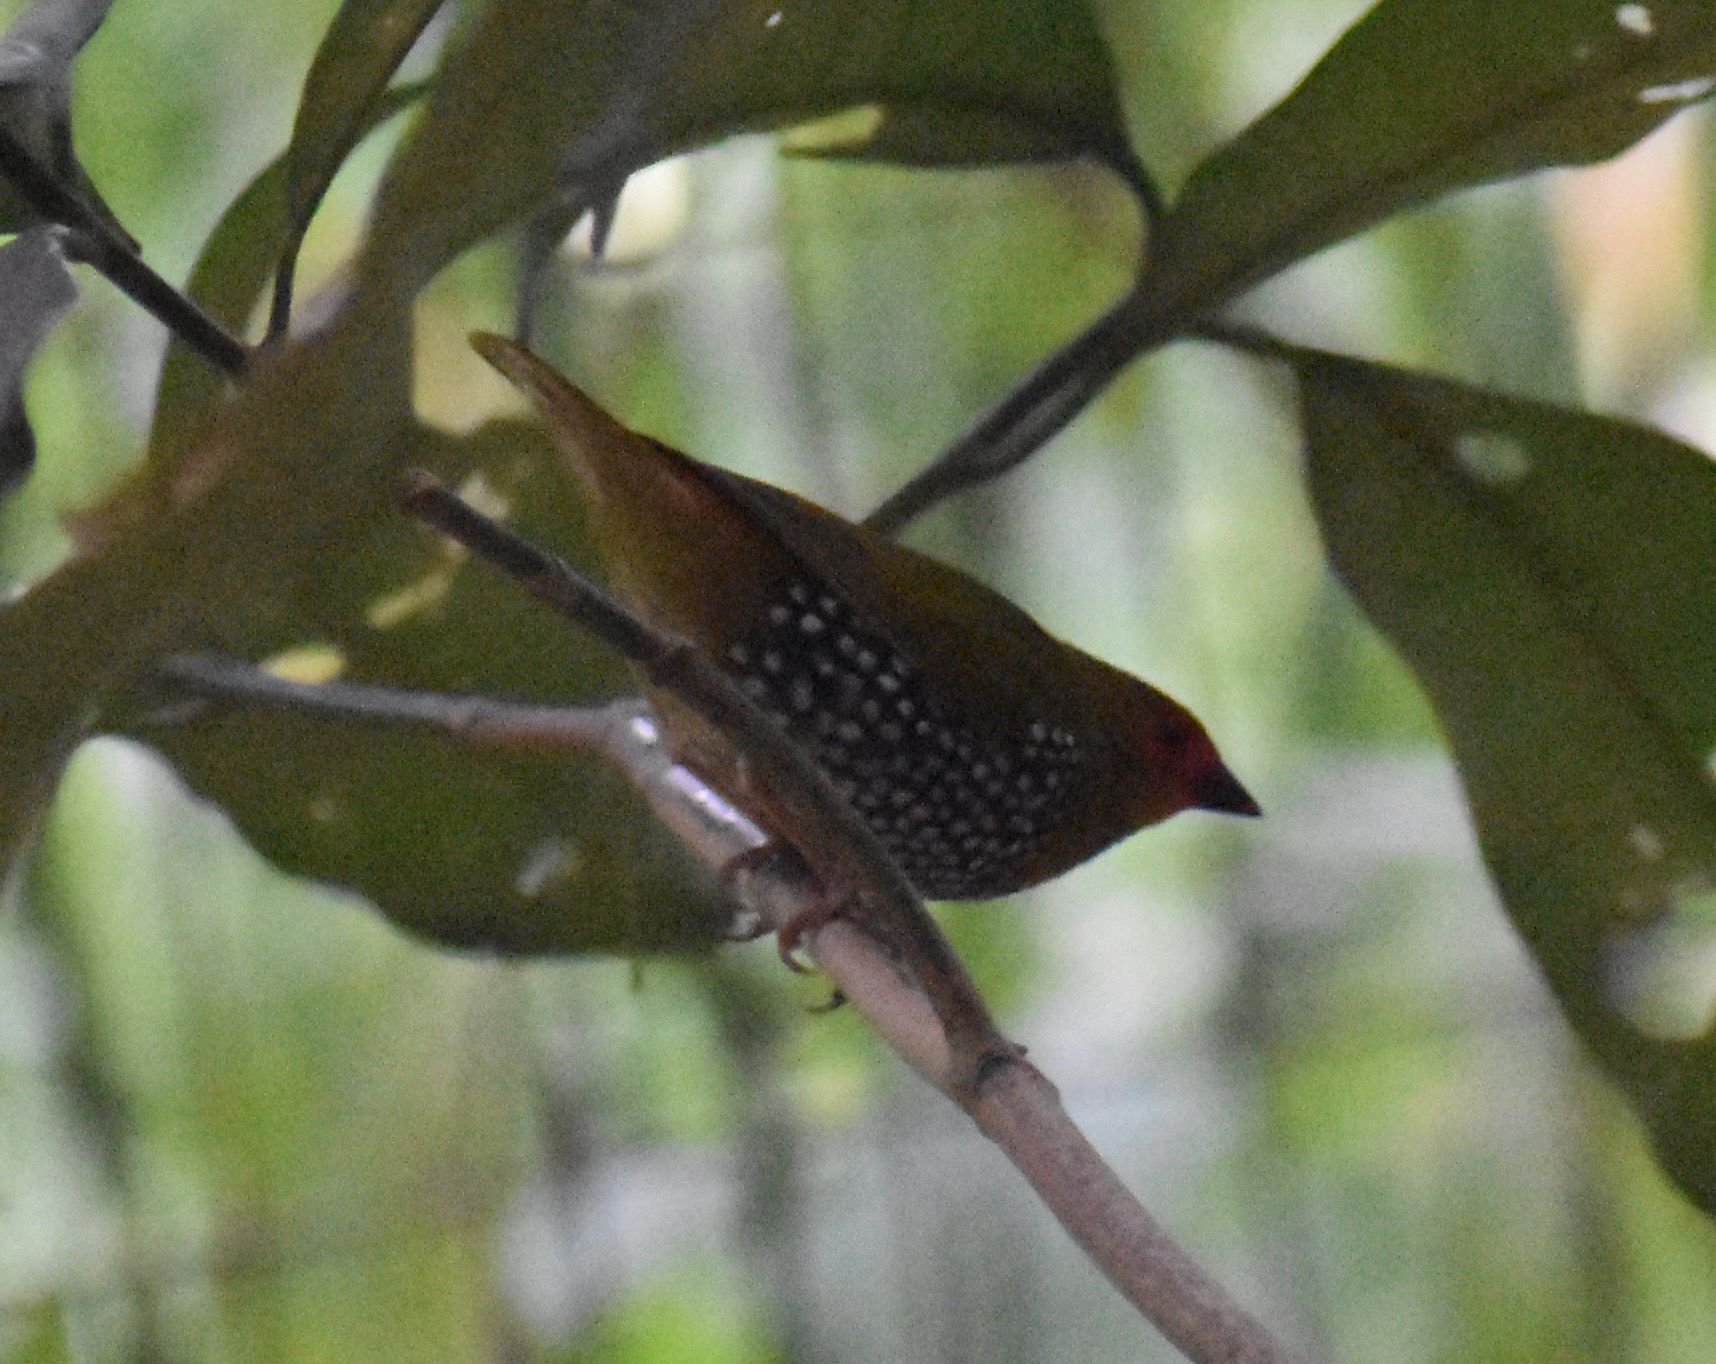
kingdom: Animalia
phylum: Chordata
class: Aves
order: Passeriformes
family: Estrildidae
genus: Mandingoa
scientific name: Mandingoa nitidula
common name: Green twinspot
